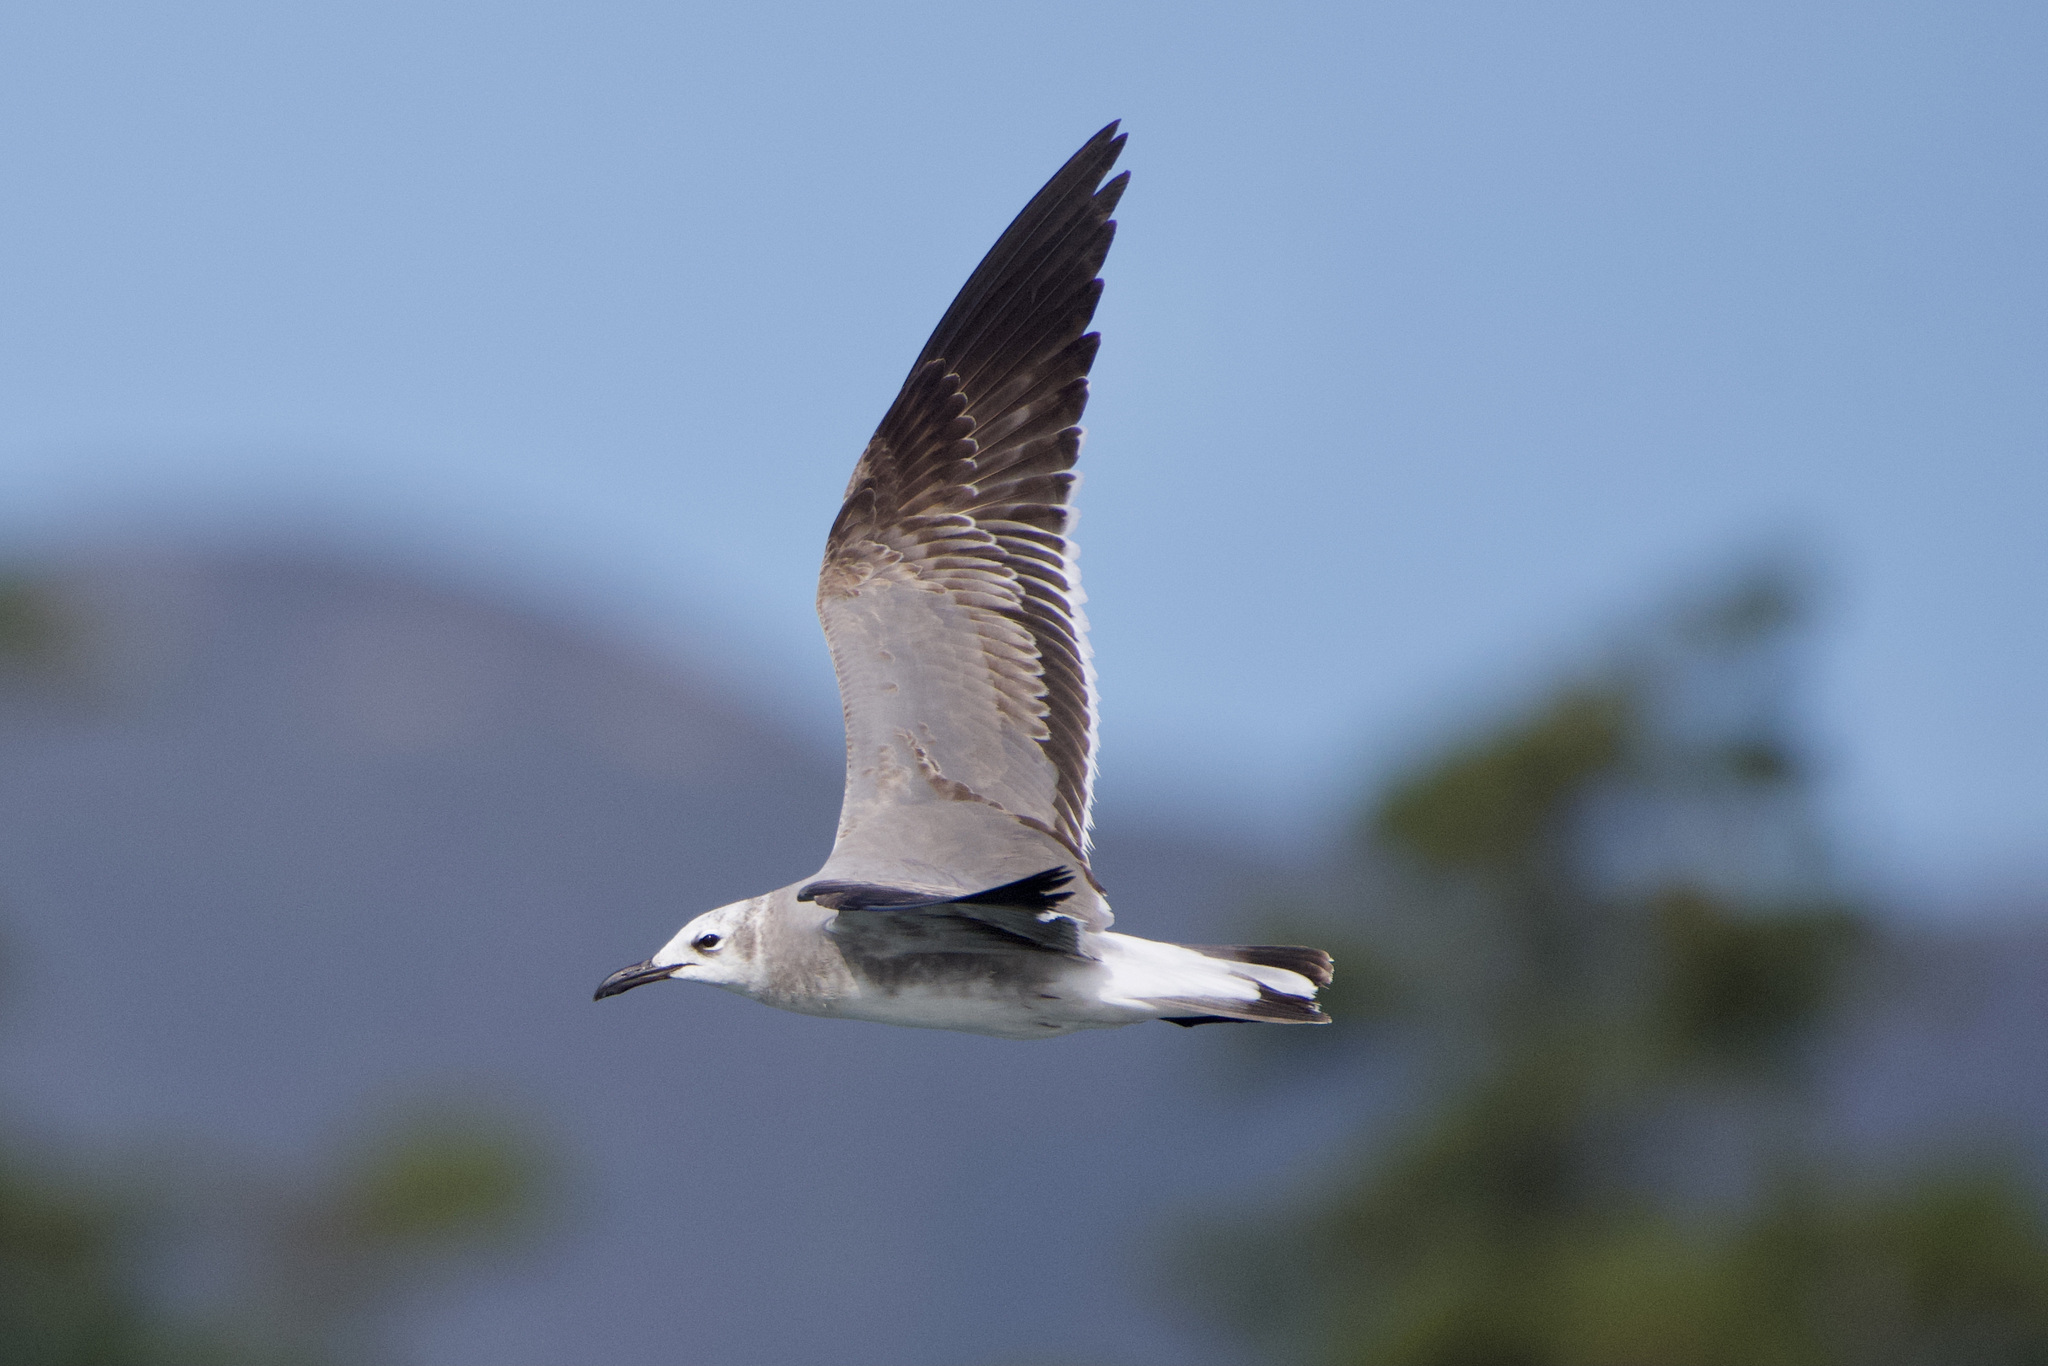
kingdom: Animalia
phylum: Chordata
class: Aves
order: Charadriiformes
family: Laridae
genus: Leucophaeus
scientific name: Leucophaeus atricilla
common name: Laughing gull
